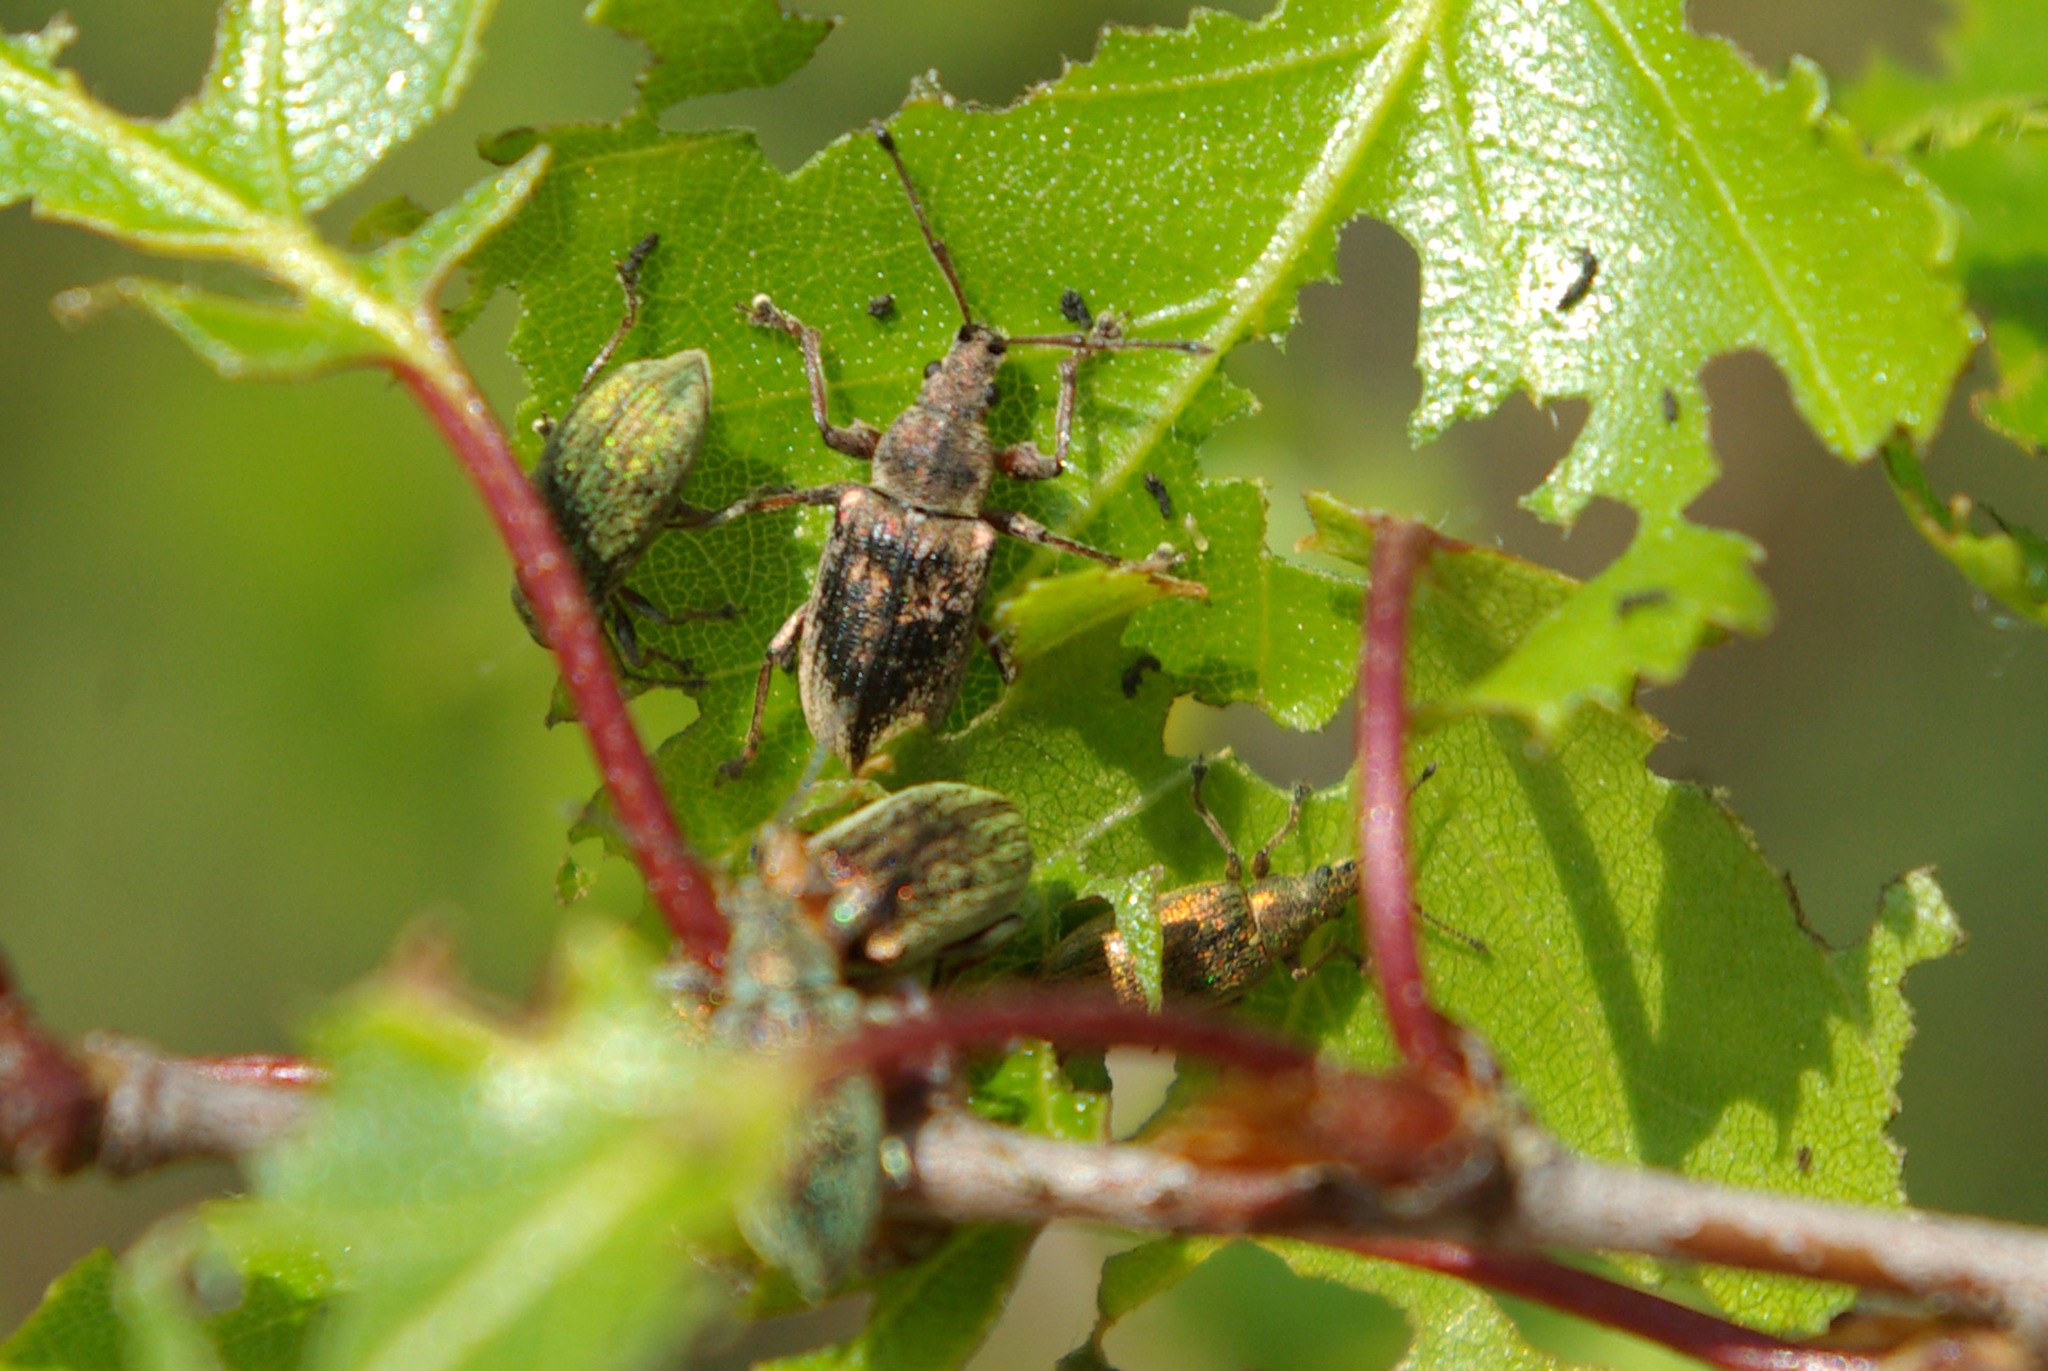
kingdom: Animalia
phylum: Arthropoda
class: Insecta
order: Coleoptera
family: Curculionidae
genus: Phyllobius
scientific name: Phyllobius pyri
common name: Common leaf weevil
